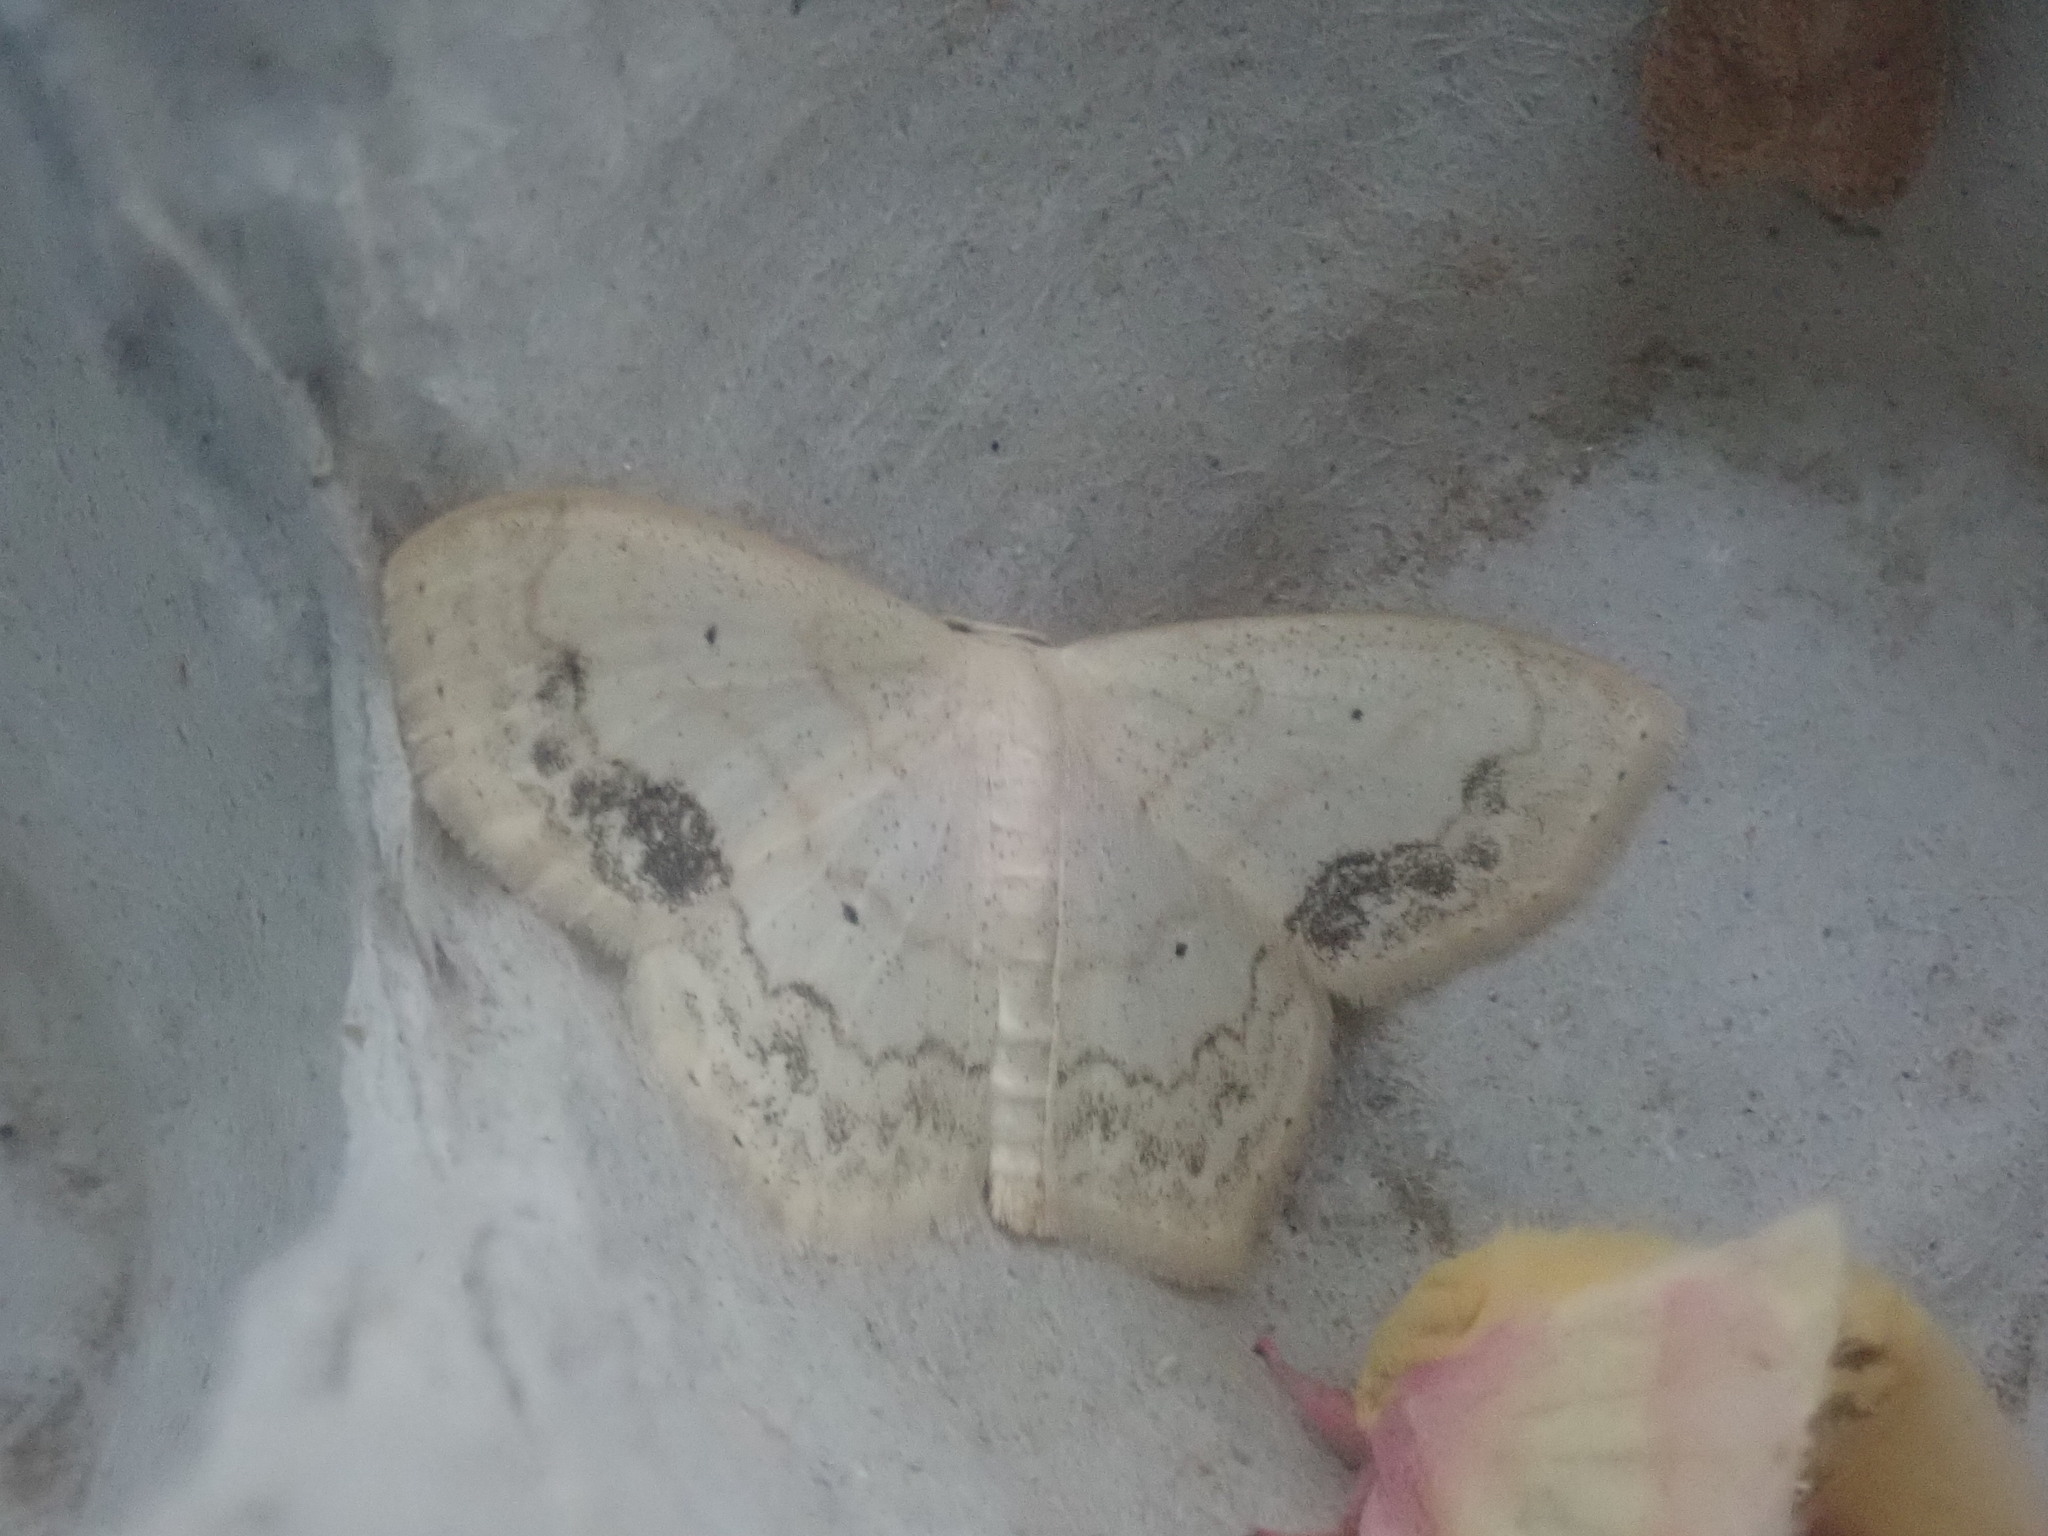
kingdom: Animalia
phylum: Arthropoda
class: Insecta
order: Lepidoptera
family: Geometridae
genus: Scopula
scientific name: Scopula limboundata
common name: Large lace border
